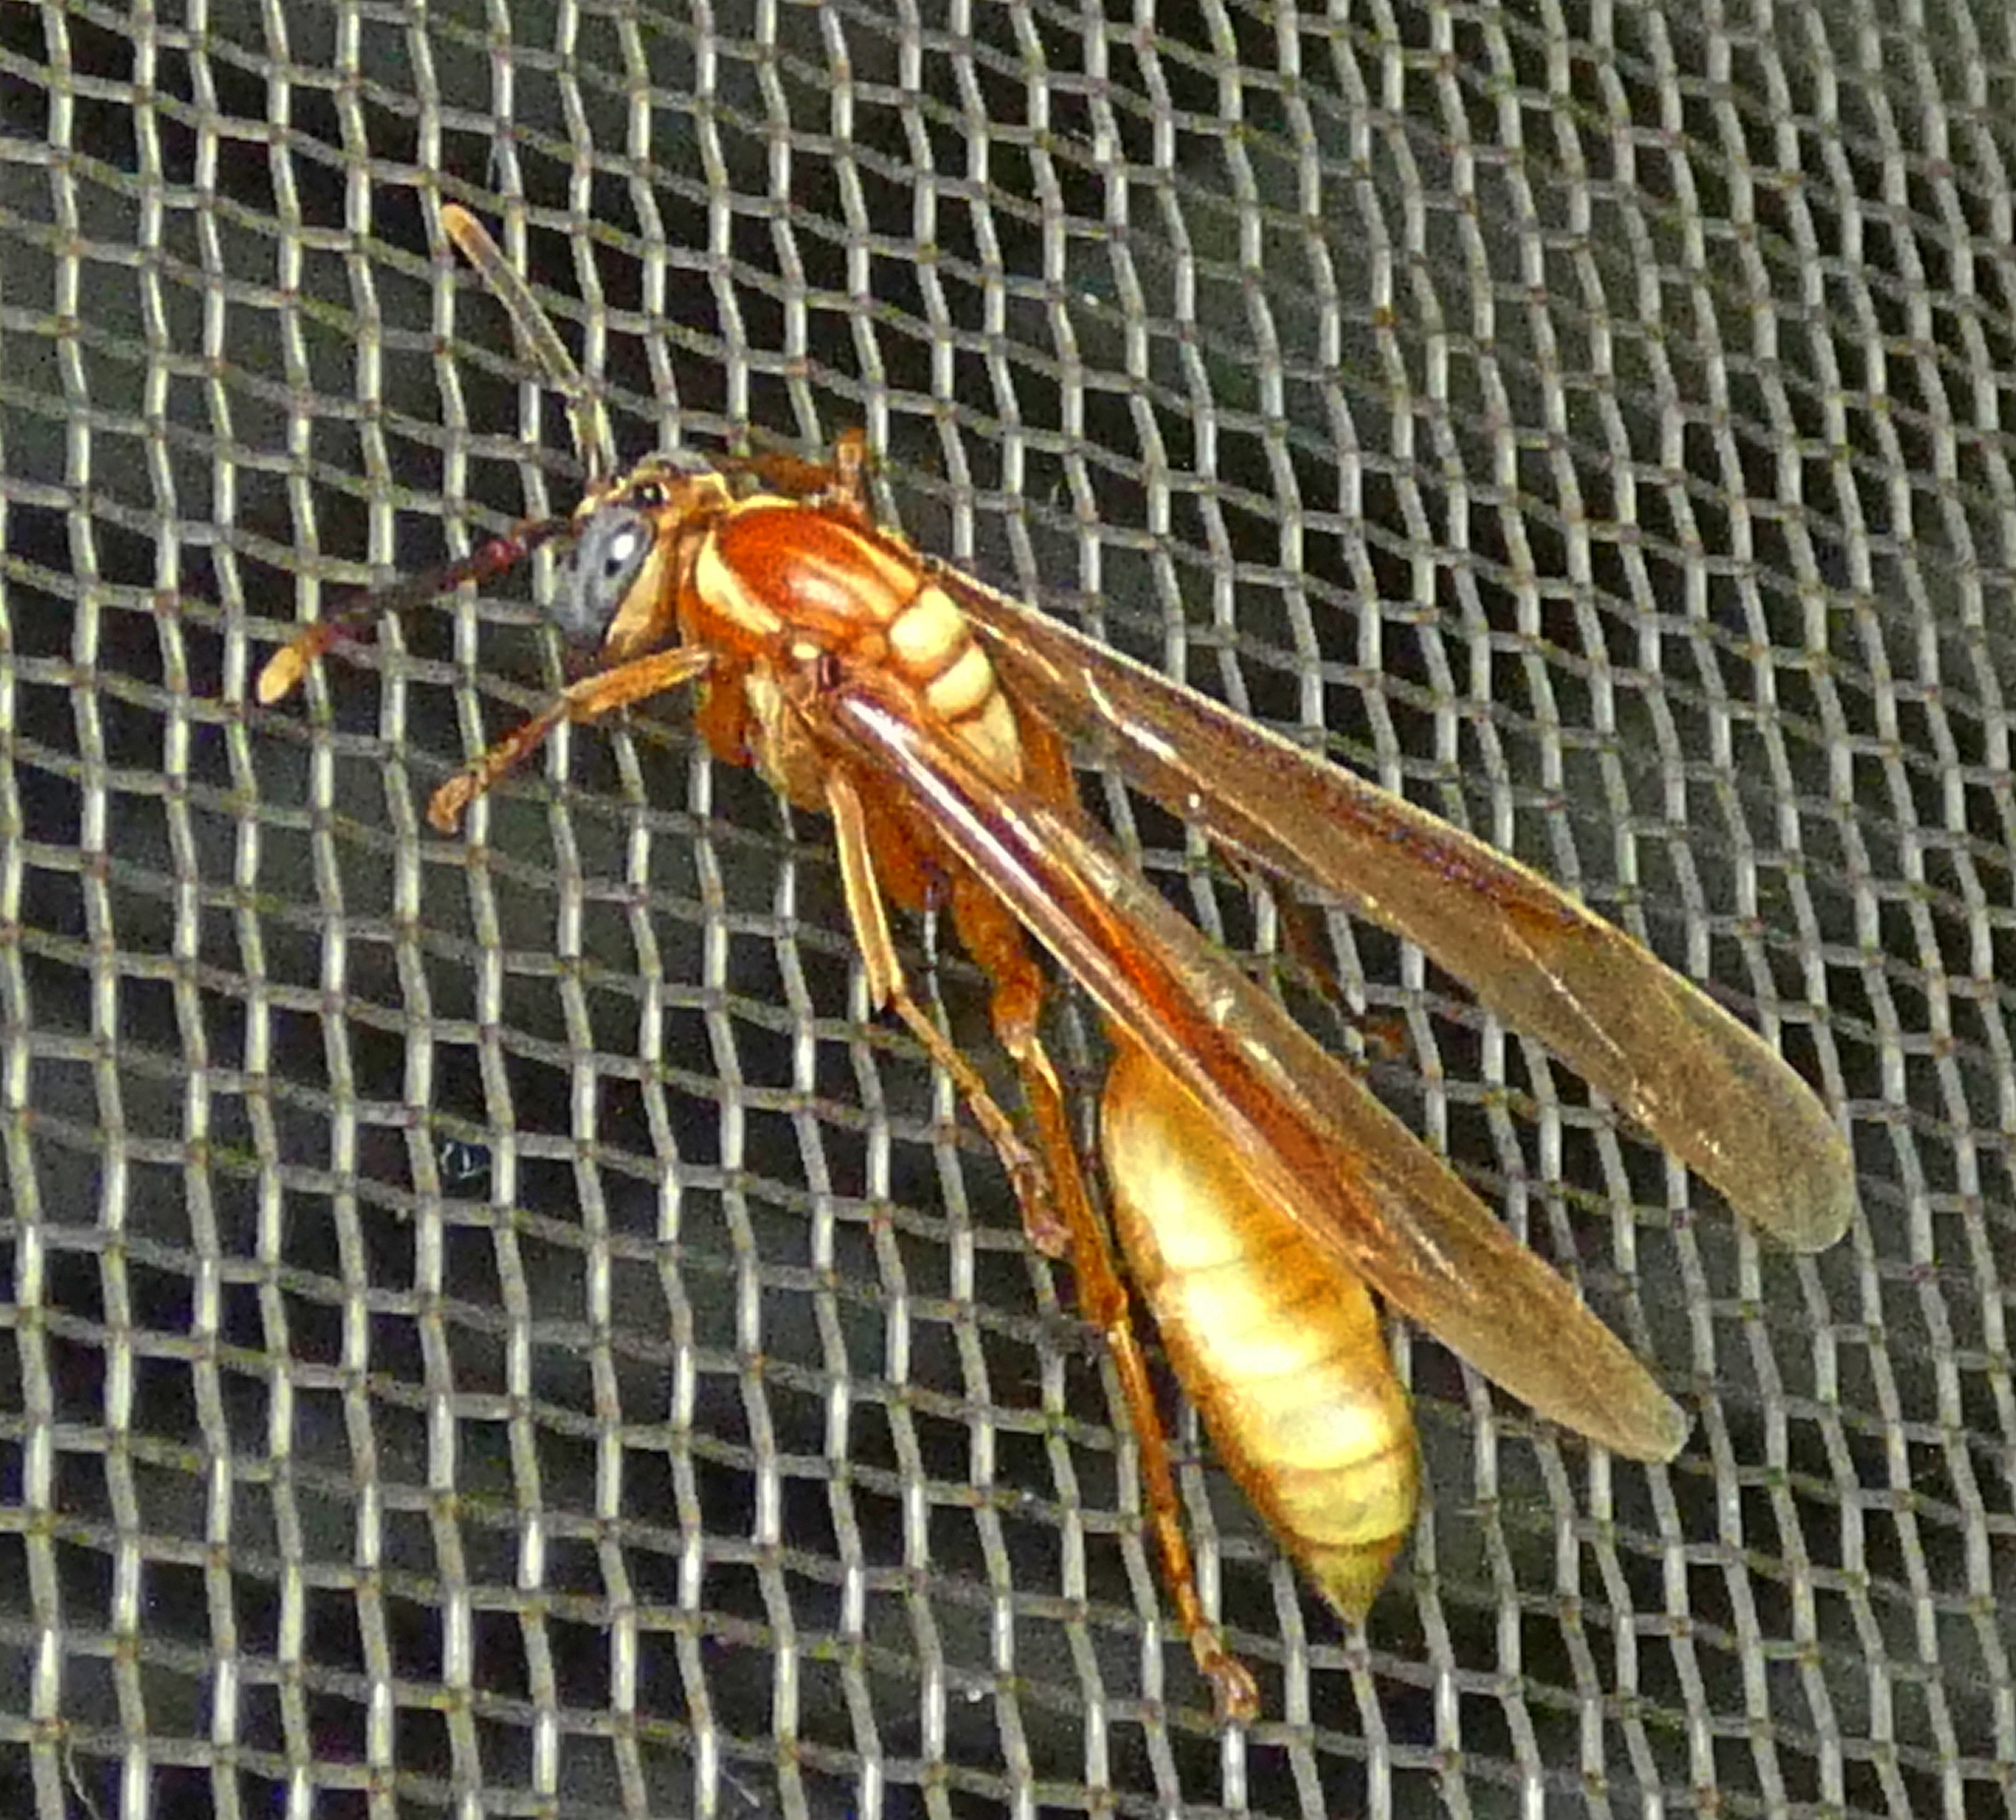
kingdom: Animalia
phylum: Arthropoda
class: Insecta
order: Hymenoptera
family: Vespidae
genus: Apoica
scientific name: Apoica flavissima
